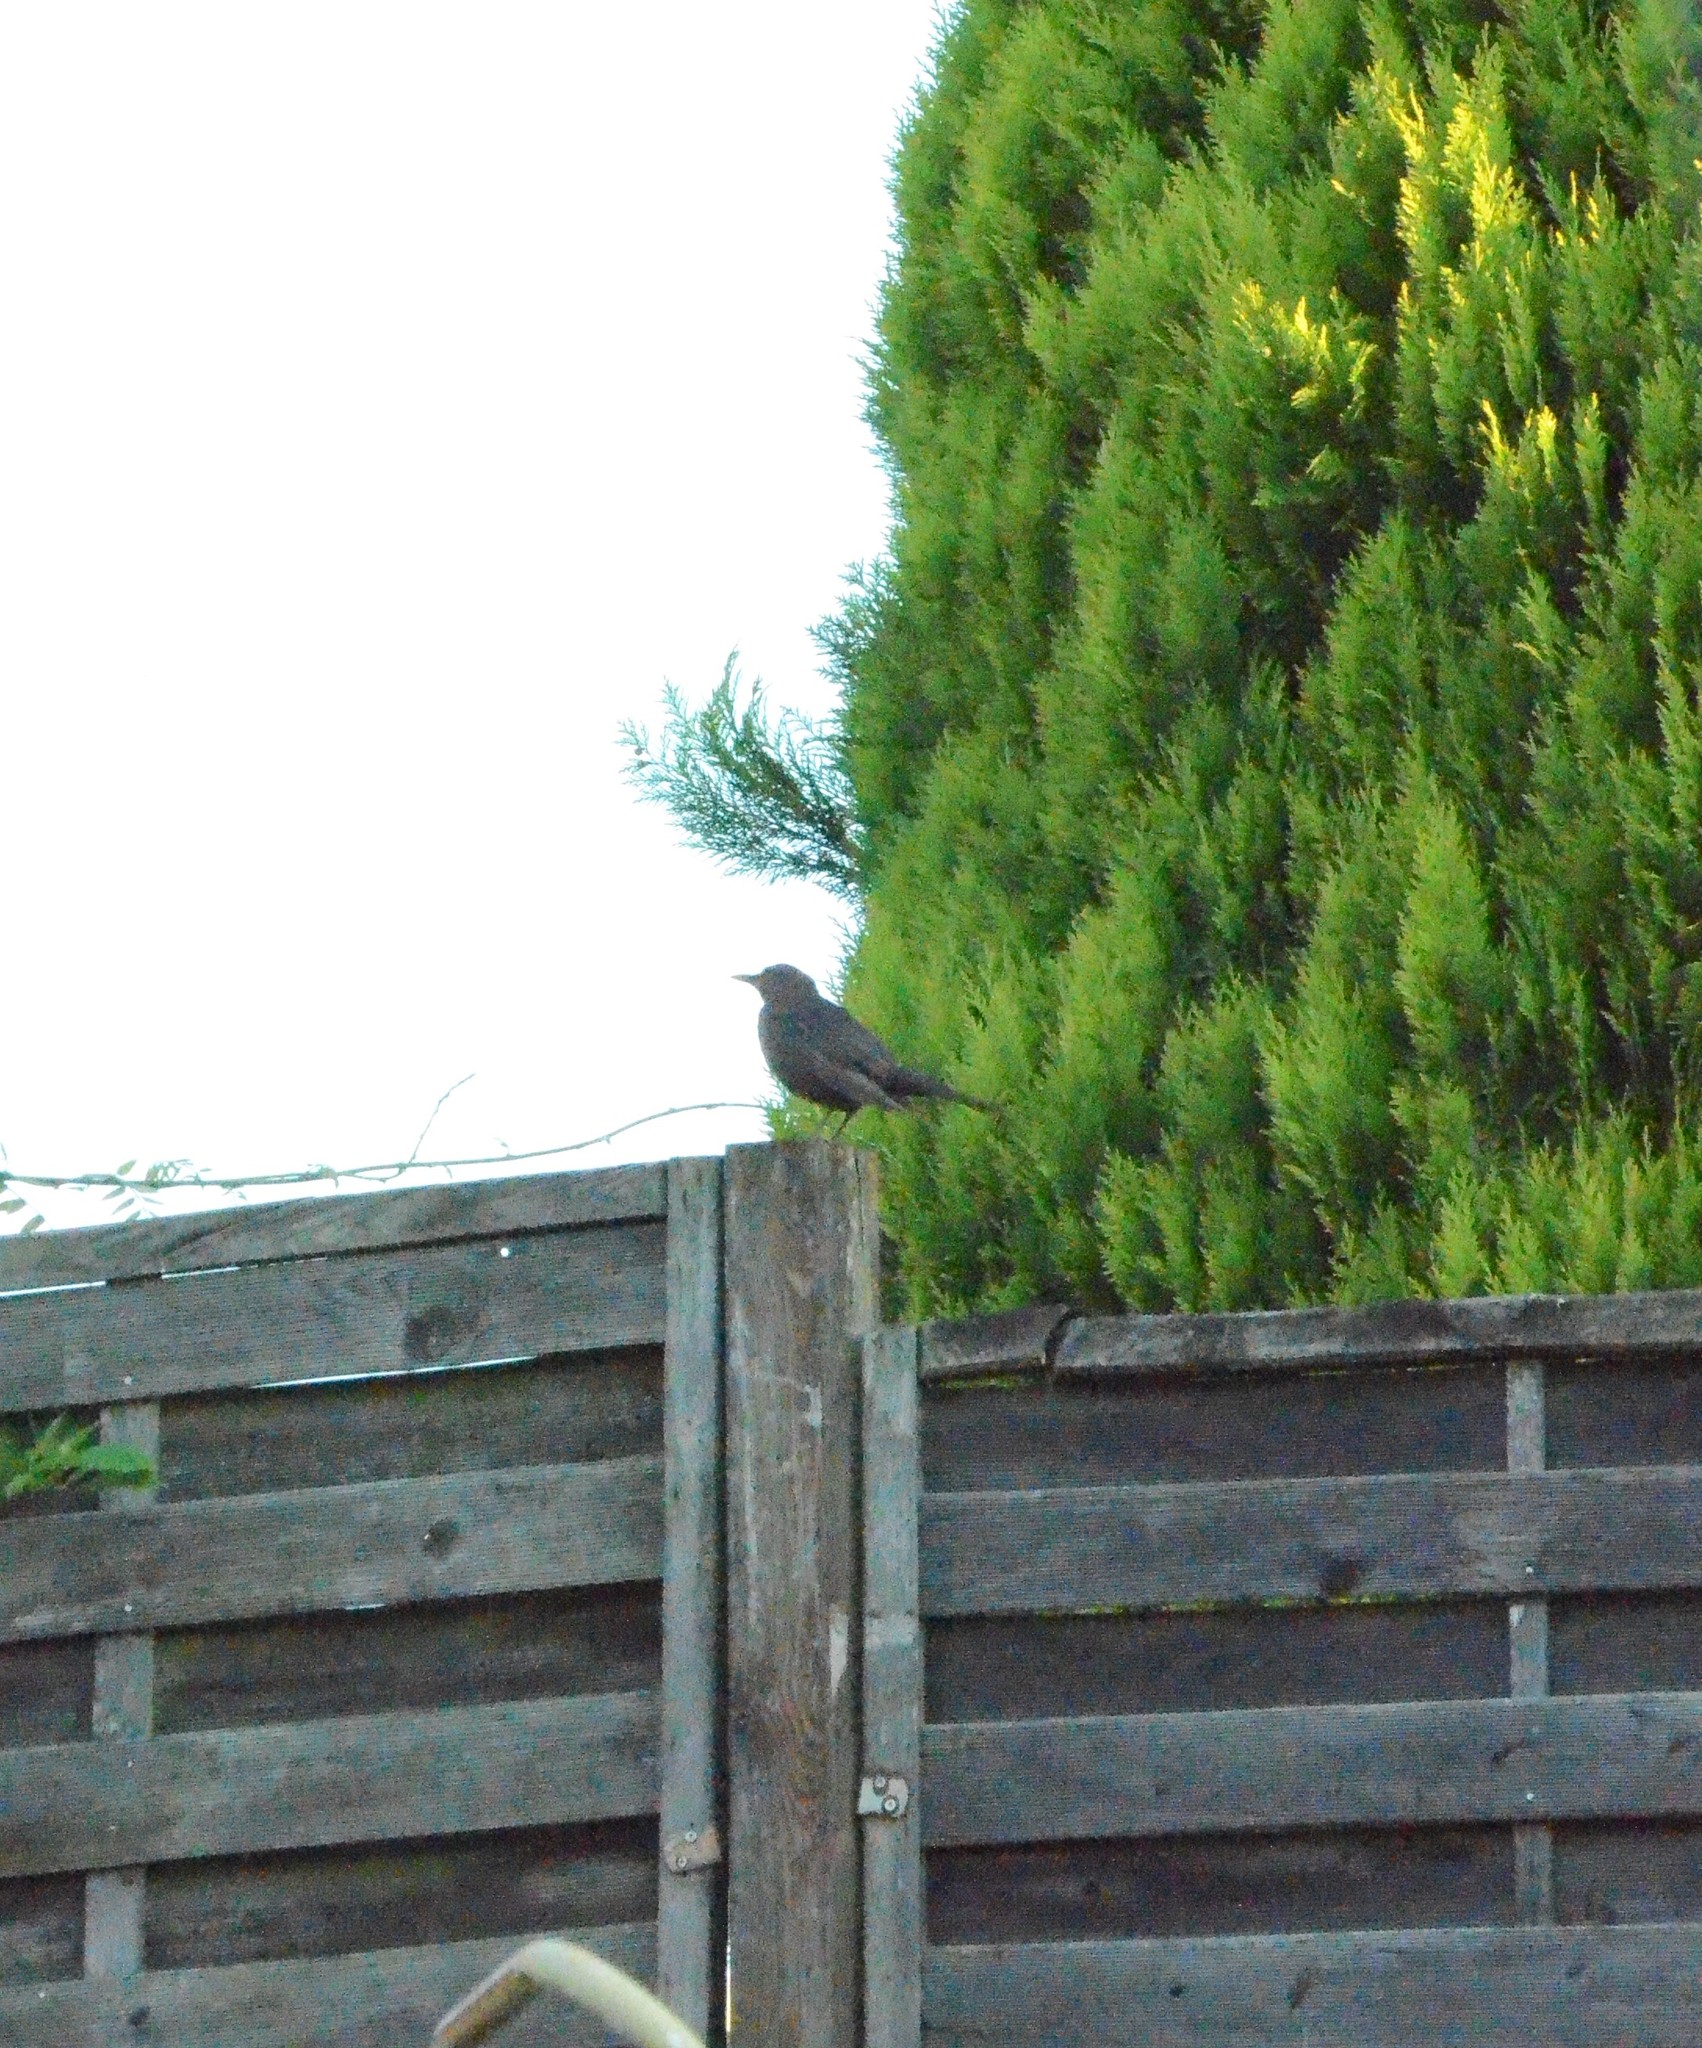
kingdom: Animalia
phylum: Chordata
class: Aves
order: Passeriformes
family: Turdidae
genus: Turdus
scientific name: Turdus merula
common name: Common blackbird
